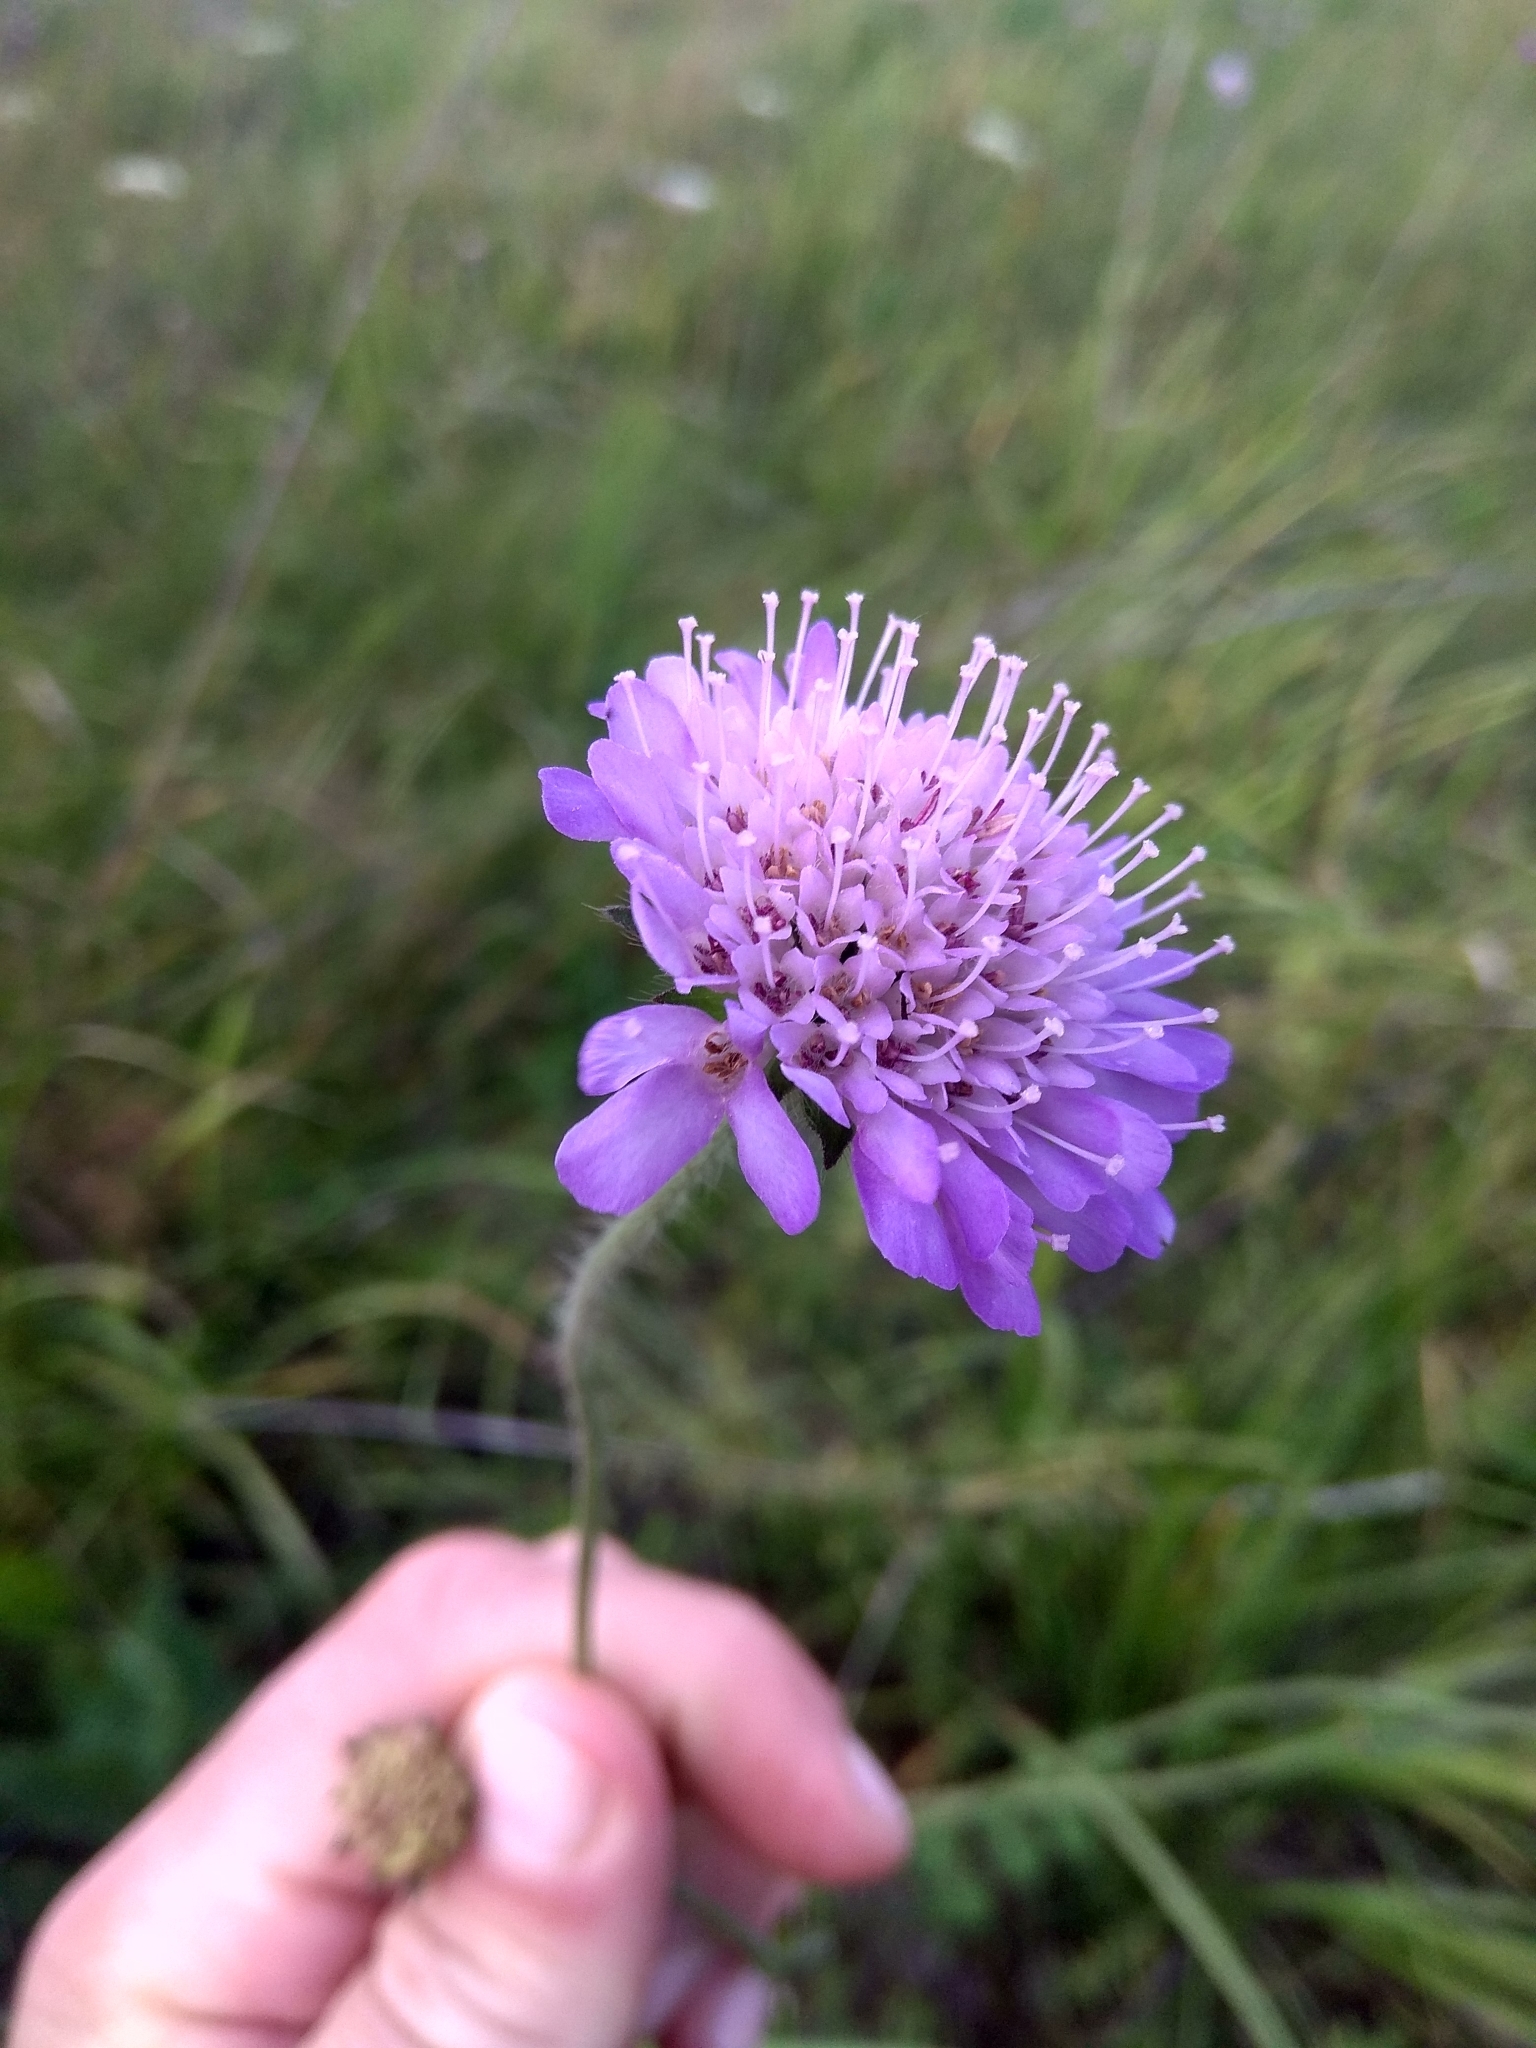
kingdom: Plantae
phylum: Tracheophyta
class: Magnoliopsida
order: Dipsacales
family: Caprifoliaceae
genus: Knautia
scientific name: Knautia arvensis
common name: Field scabiosa
